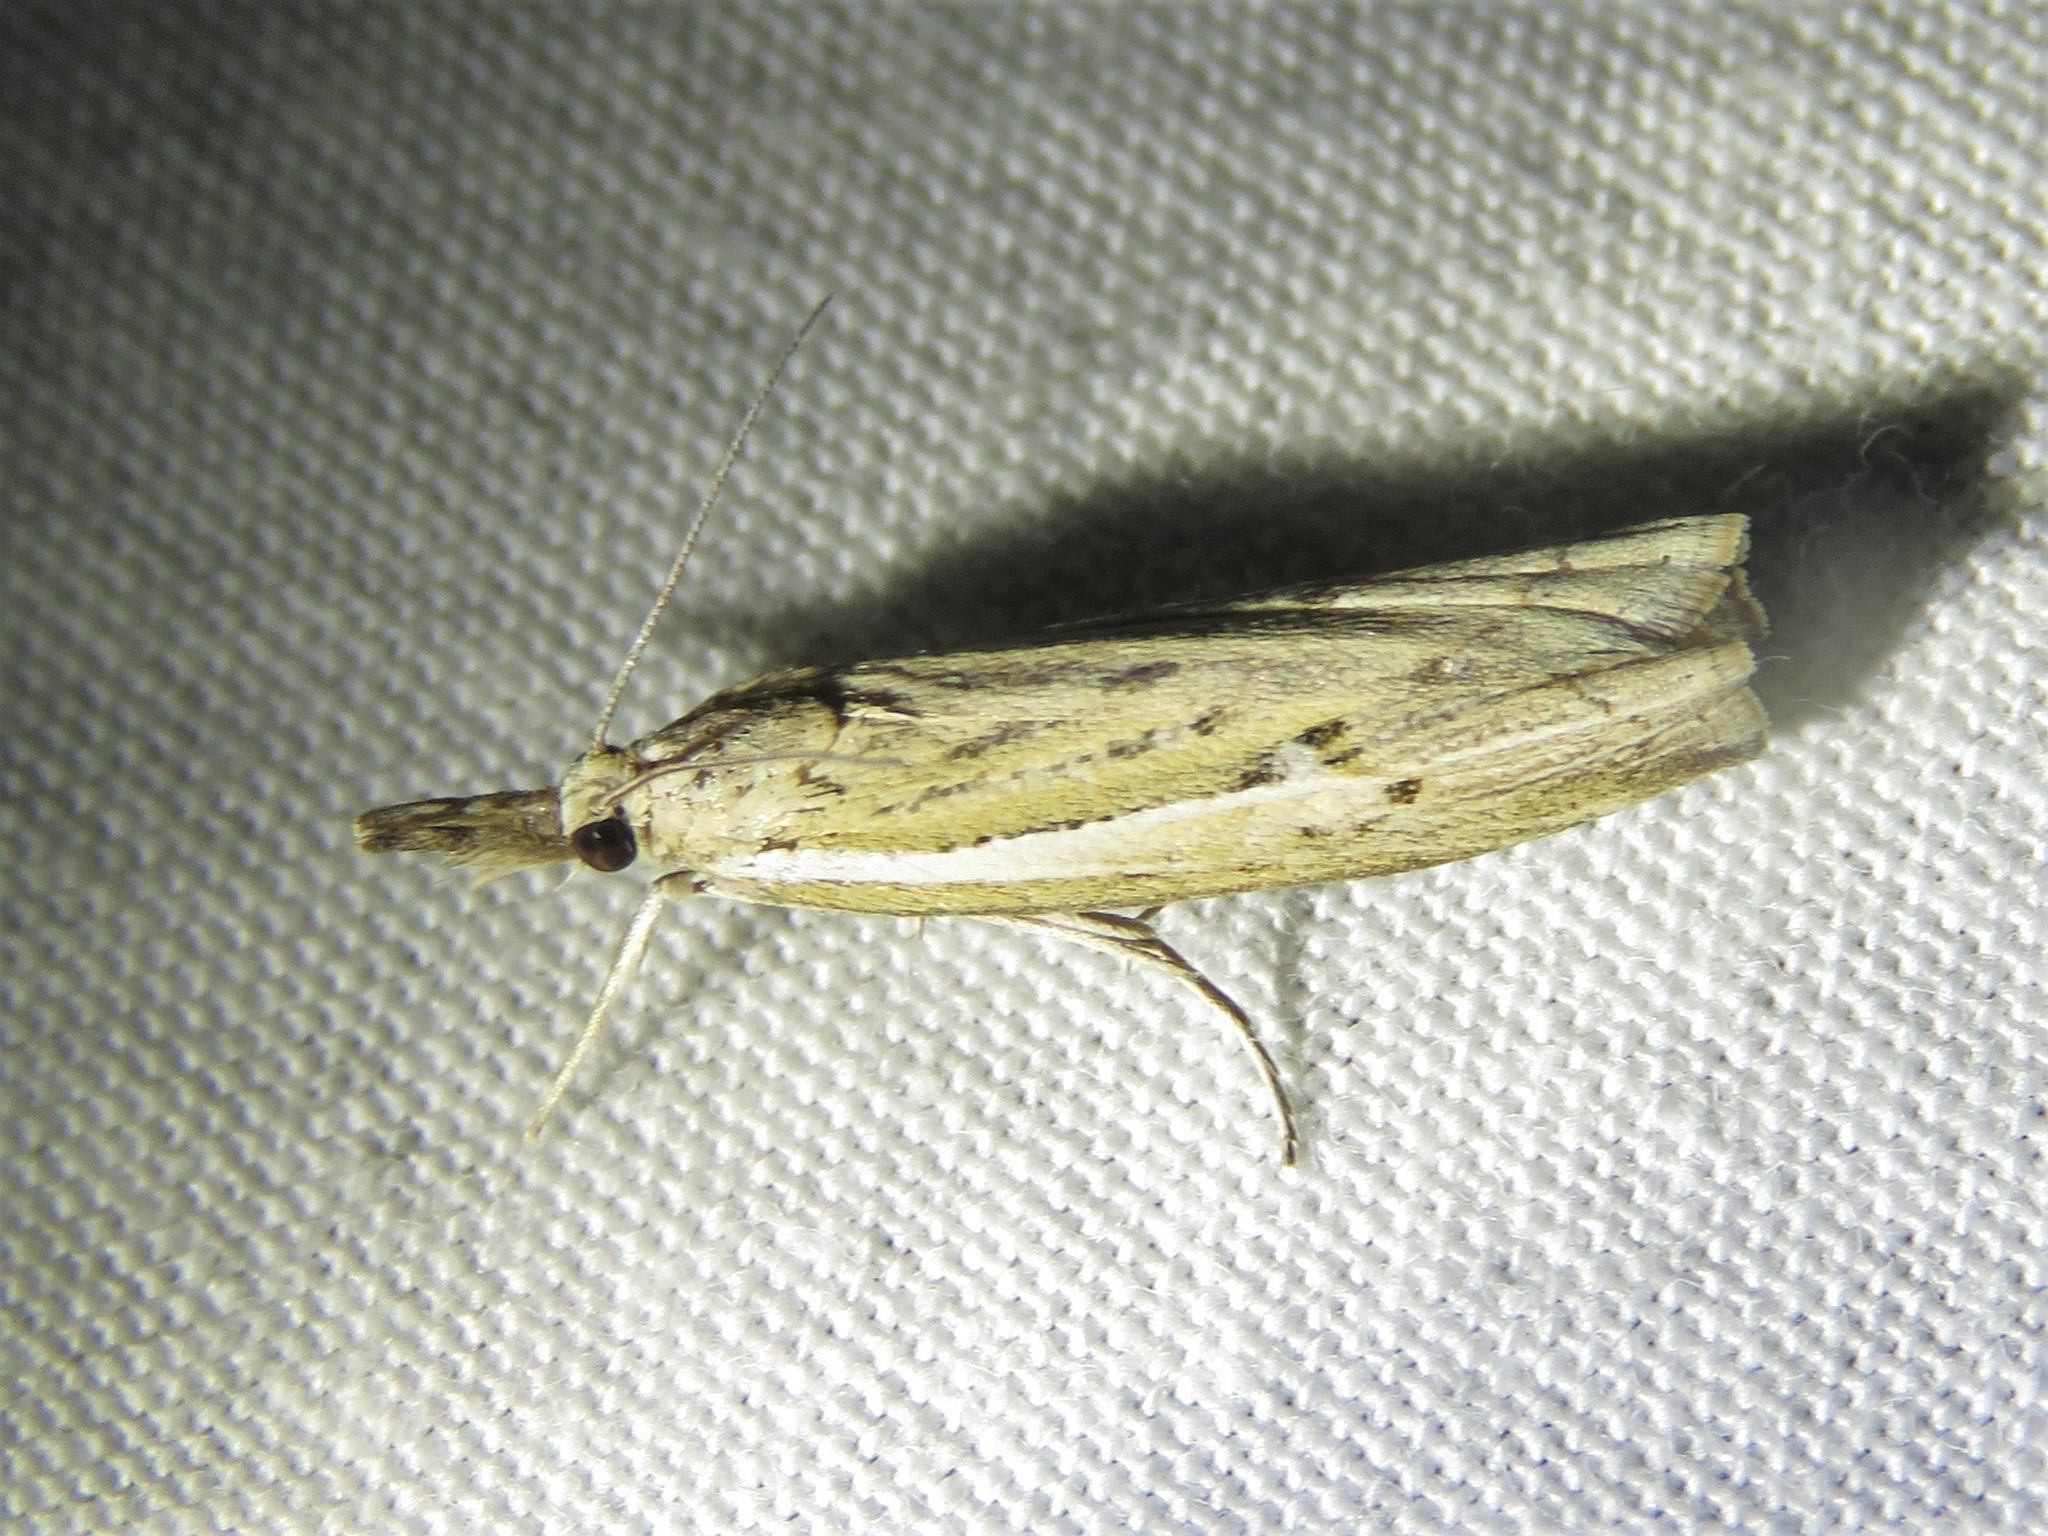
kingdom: Animalia
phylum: Arthropoda
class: Insecta
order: Lepidoptera
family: Crambidae
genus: Fissicrambus
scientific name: Fissicrambus profanellus
